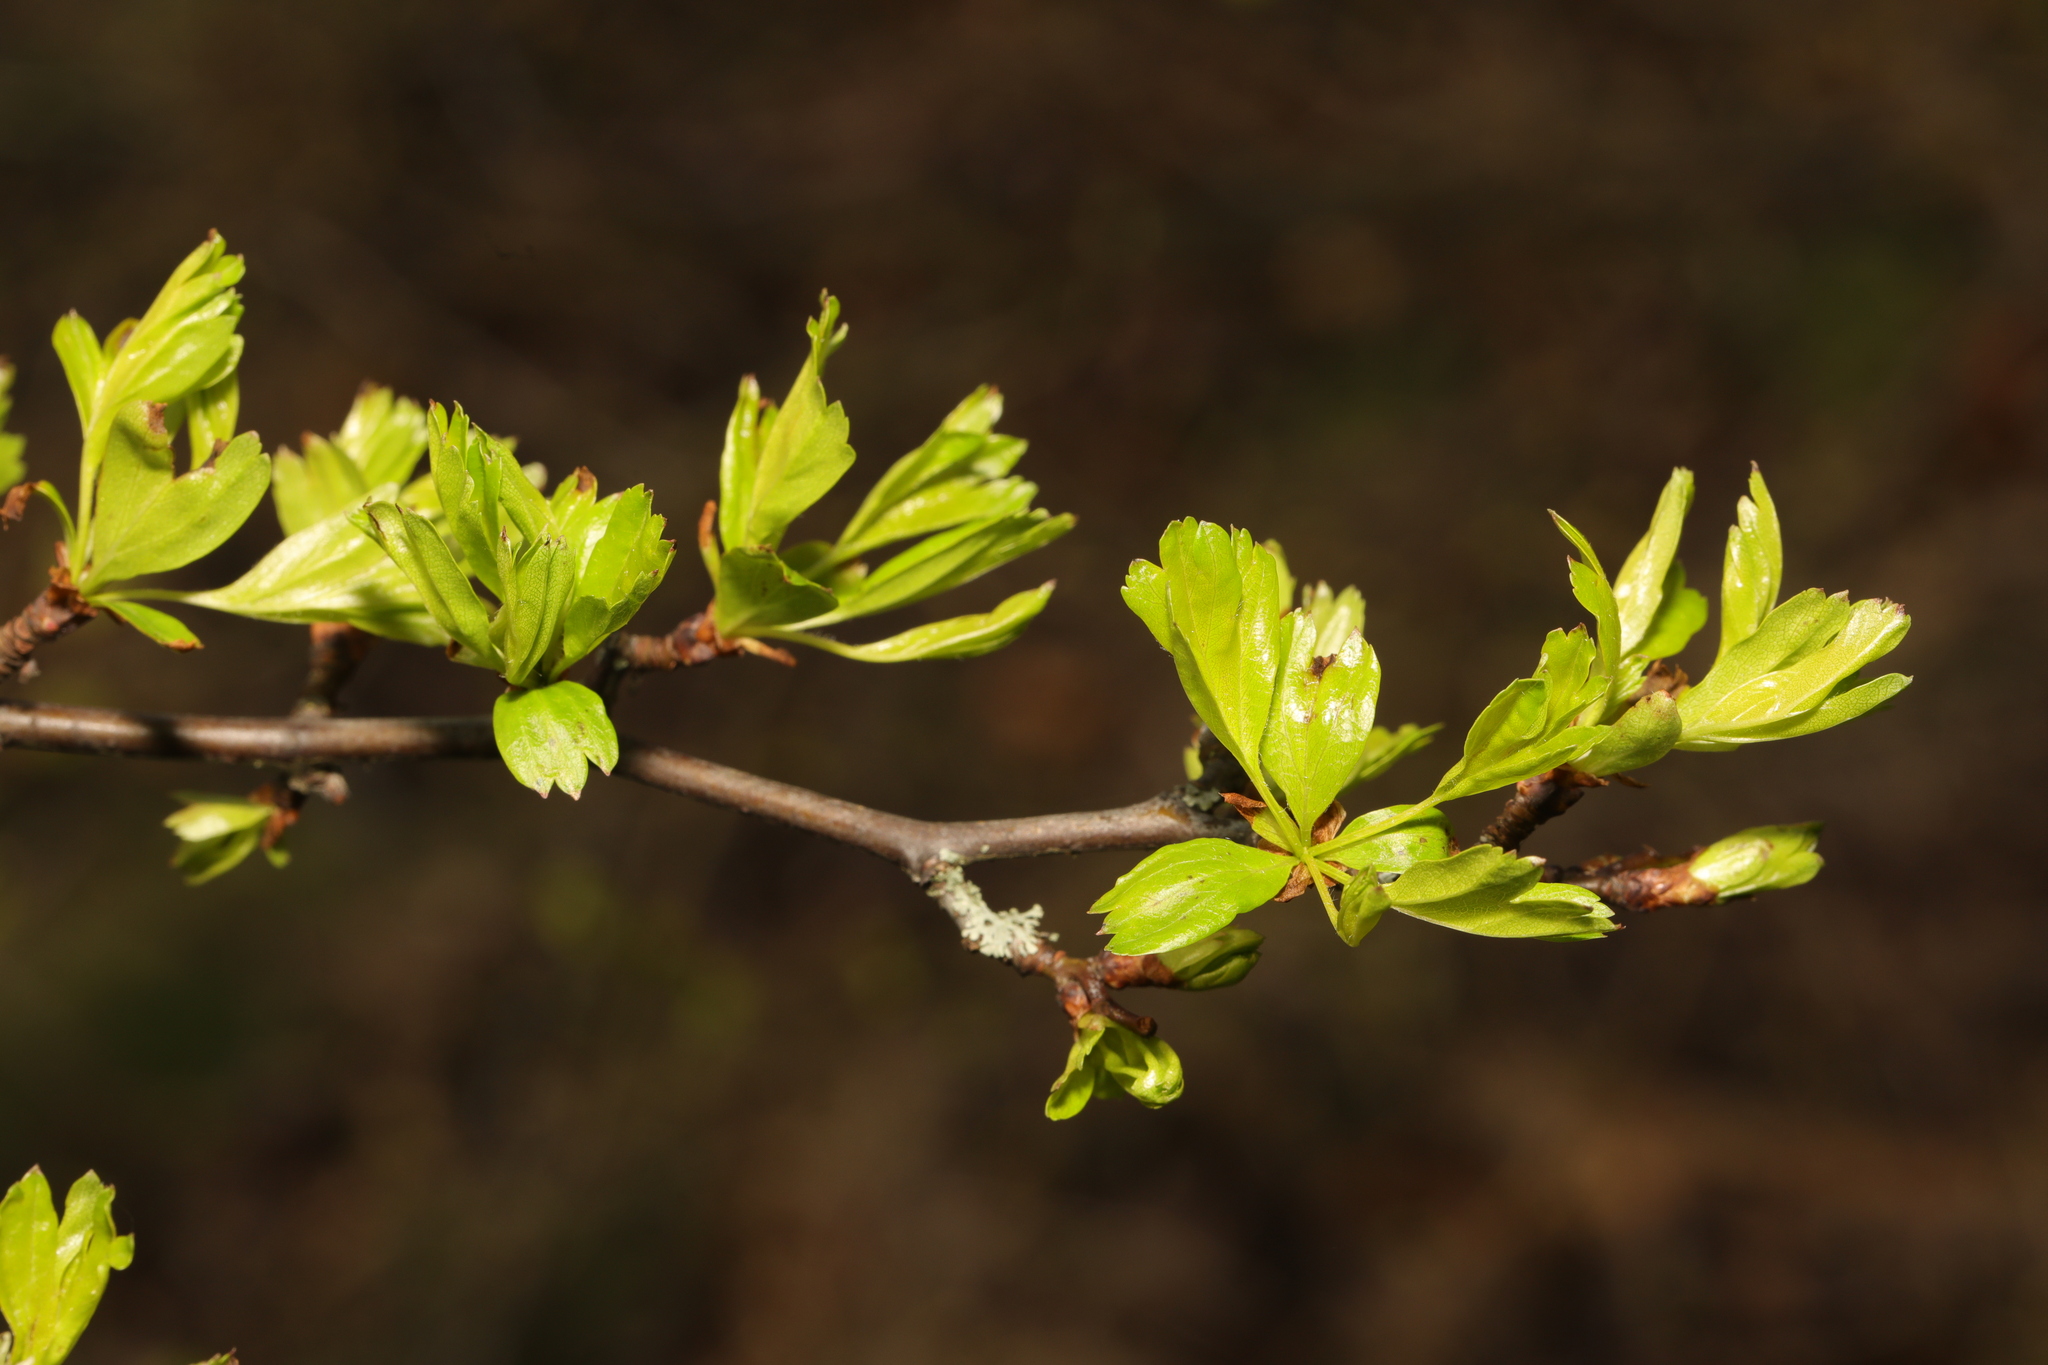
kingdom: Plantae
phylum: Tracheophyta
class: Magnoliopsida
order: Rosales
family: Rosaceae
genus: Crataegus
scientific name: Crataegus monogyna
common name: Hawthorn
